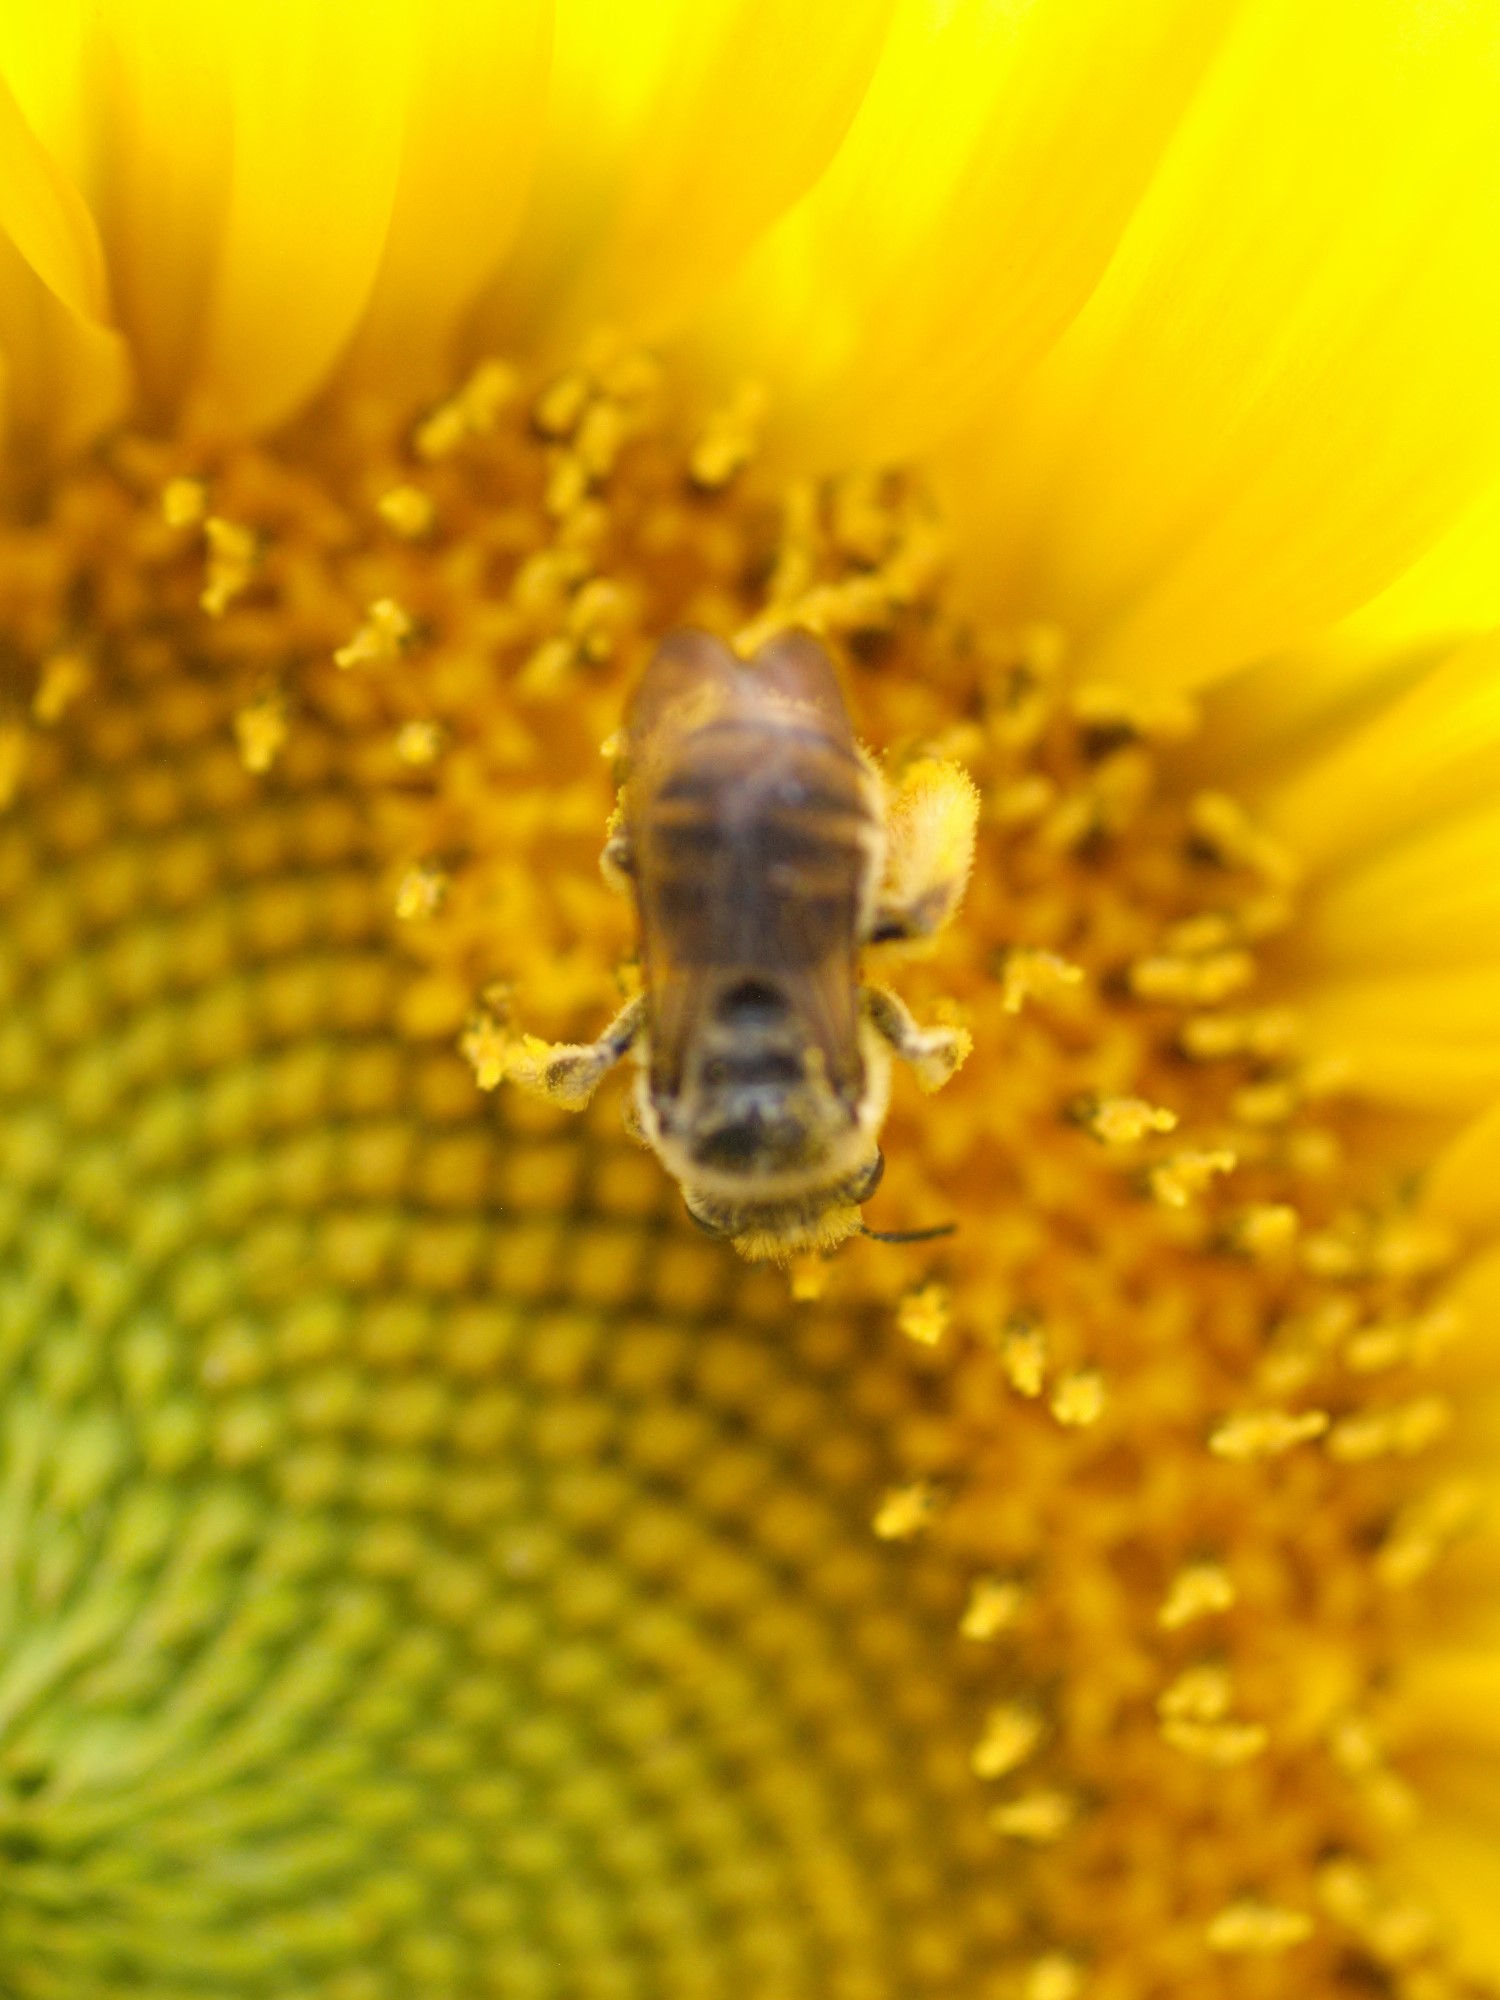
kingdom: Animalia
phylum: Arthropoda
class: Insecta
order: Hymenoptera
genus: Eumelissodes
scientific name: Eumelissodes
